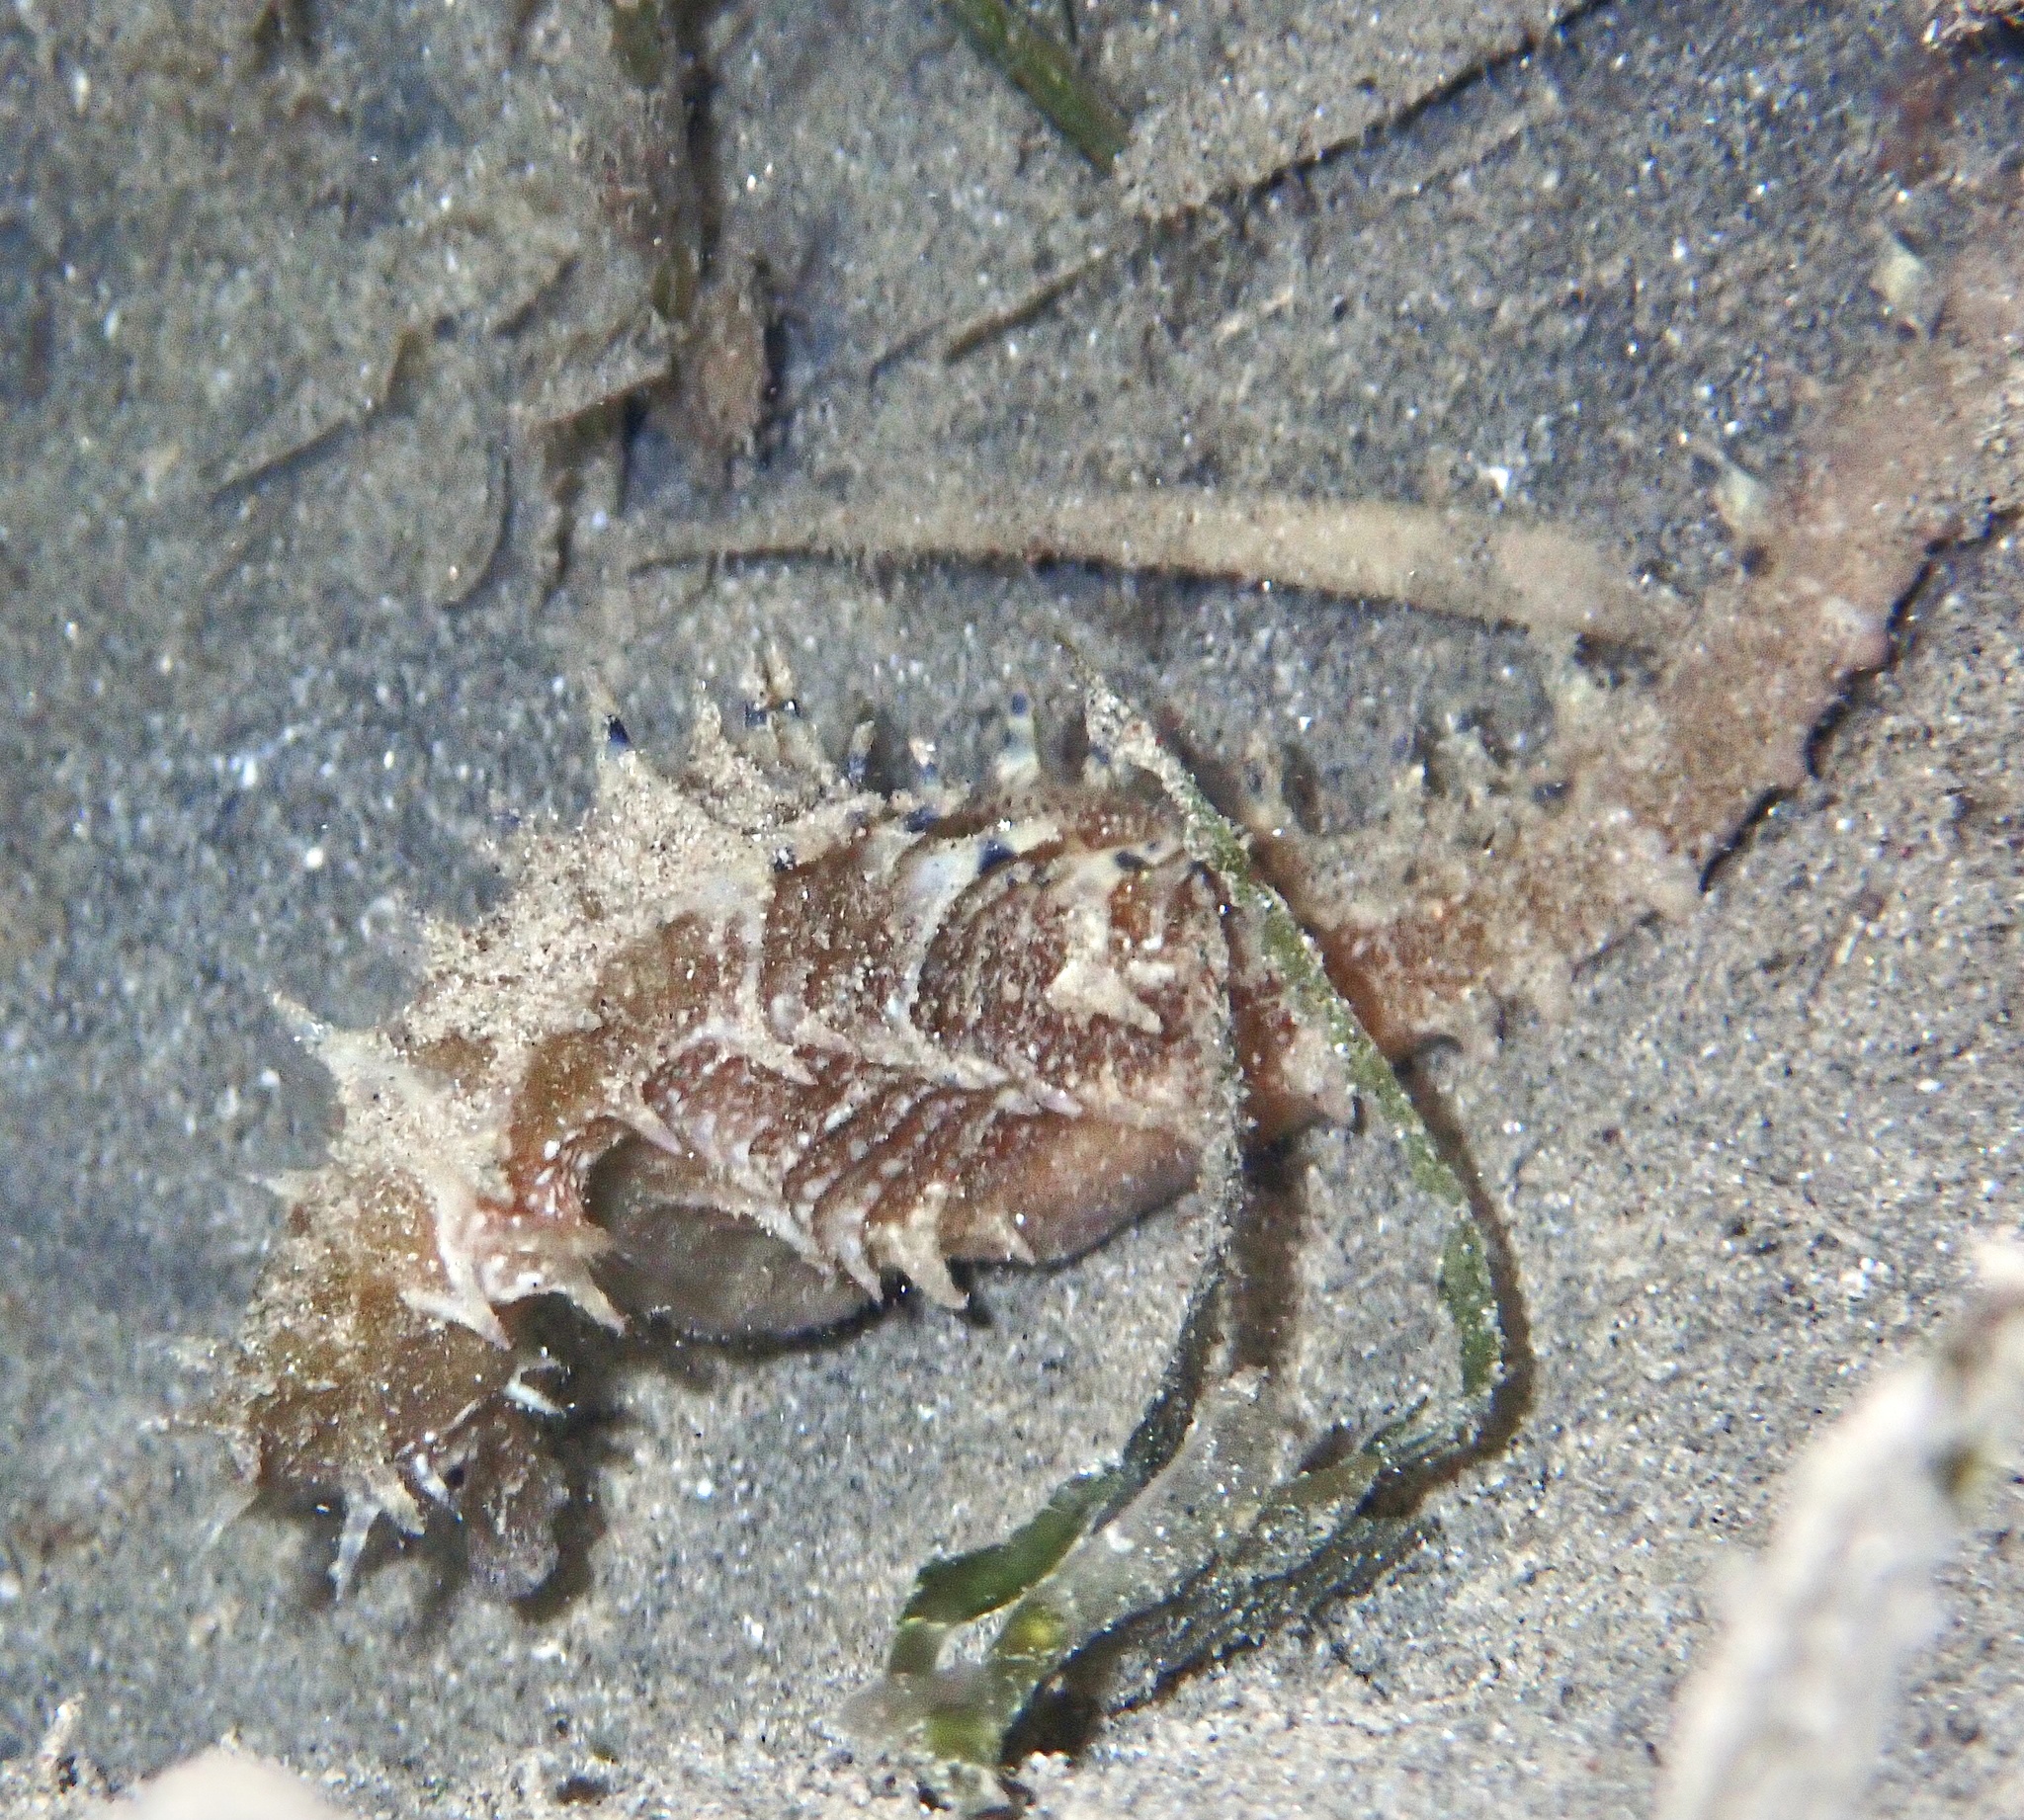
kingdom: Animalia
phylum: Chordata
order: Syngnathiformes
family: Syngnathidae
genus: Hippocampus
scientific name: Hippocampus jayakari
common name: Jayakar's seahorse
